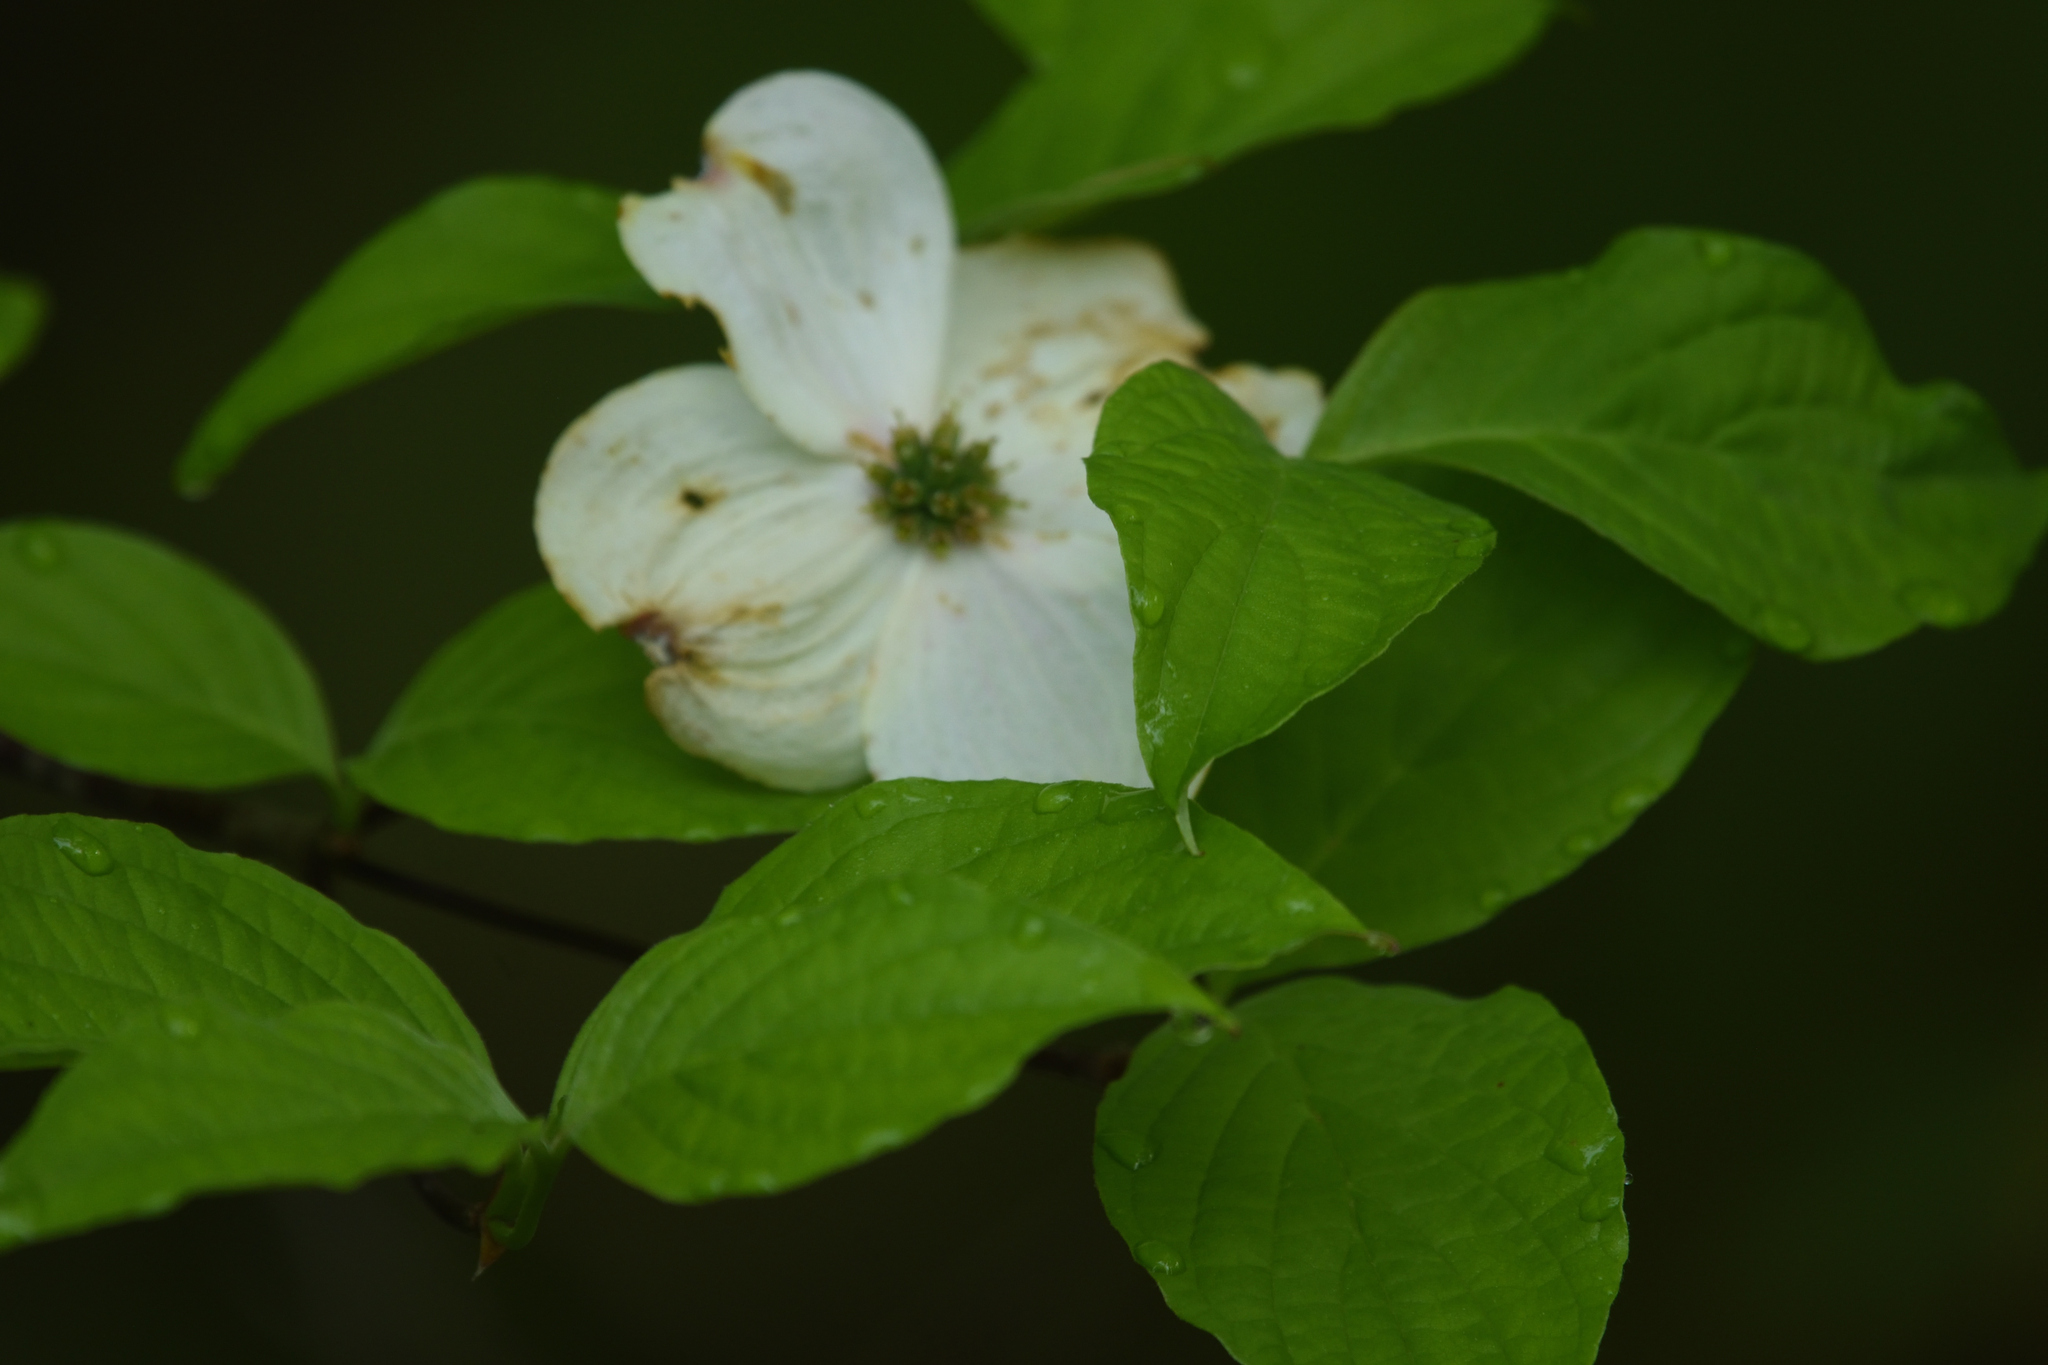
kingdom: Plantae
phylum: Tracheophyta
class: Magnoliopsida
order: Cornales
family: Cornaceae
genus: Cornus
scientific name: Cornus florida
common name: Flowering dogwood
